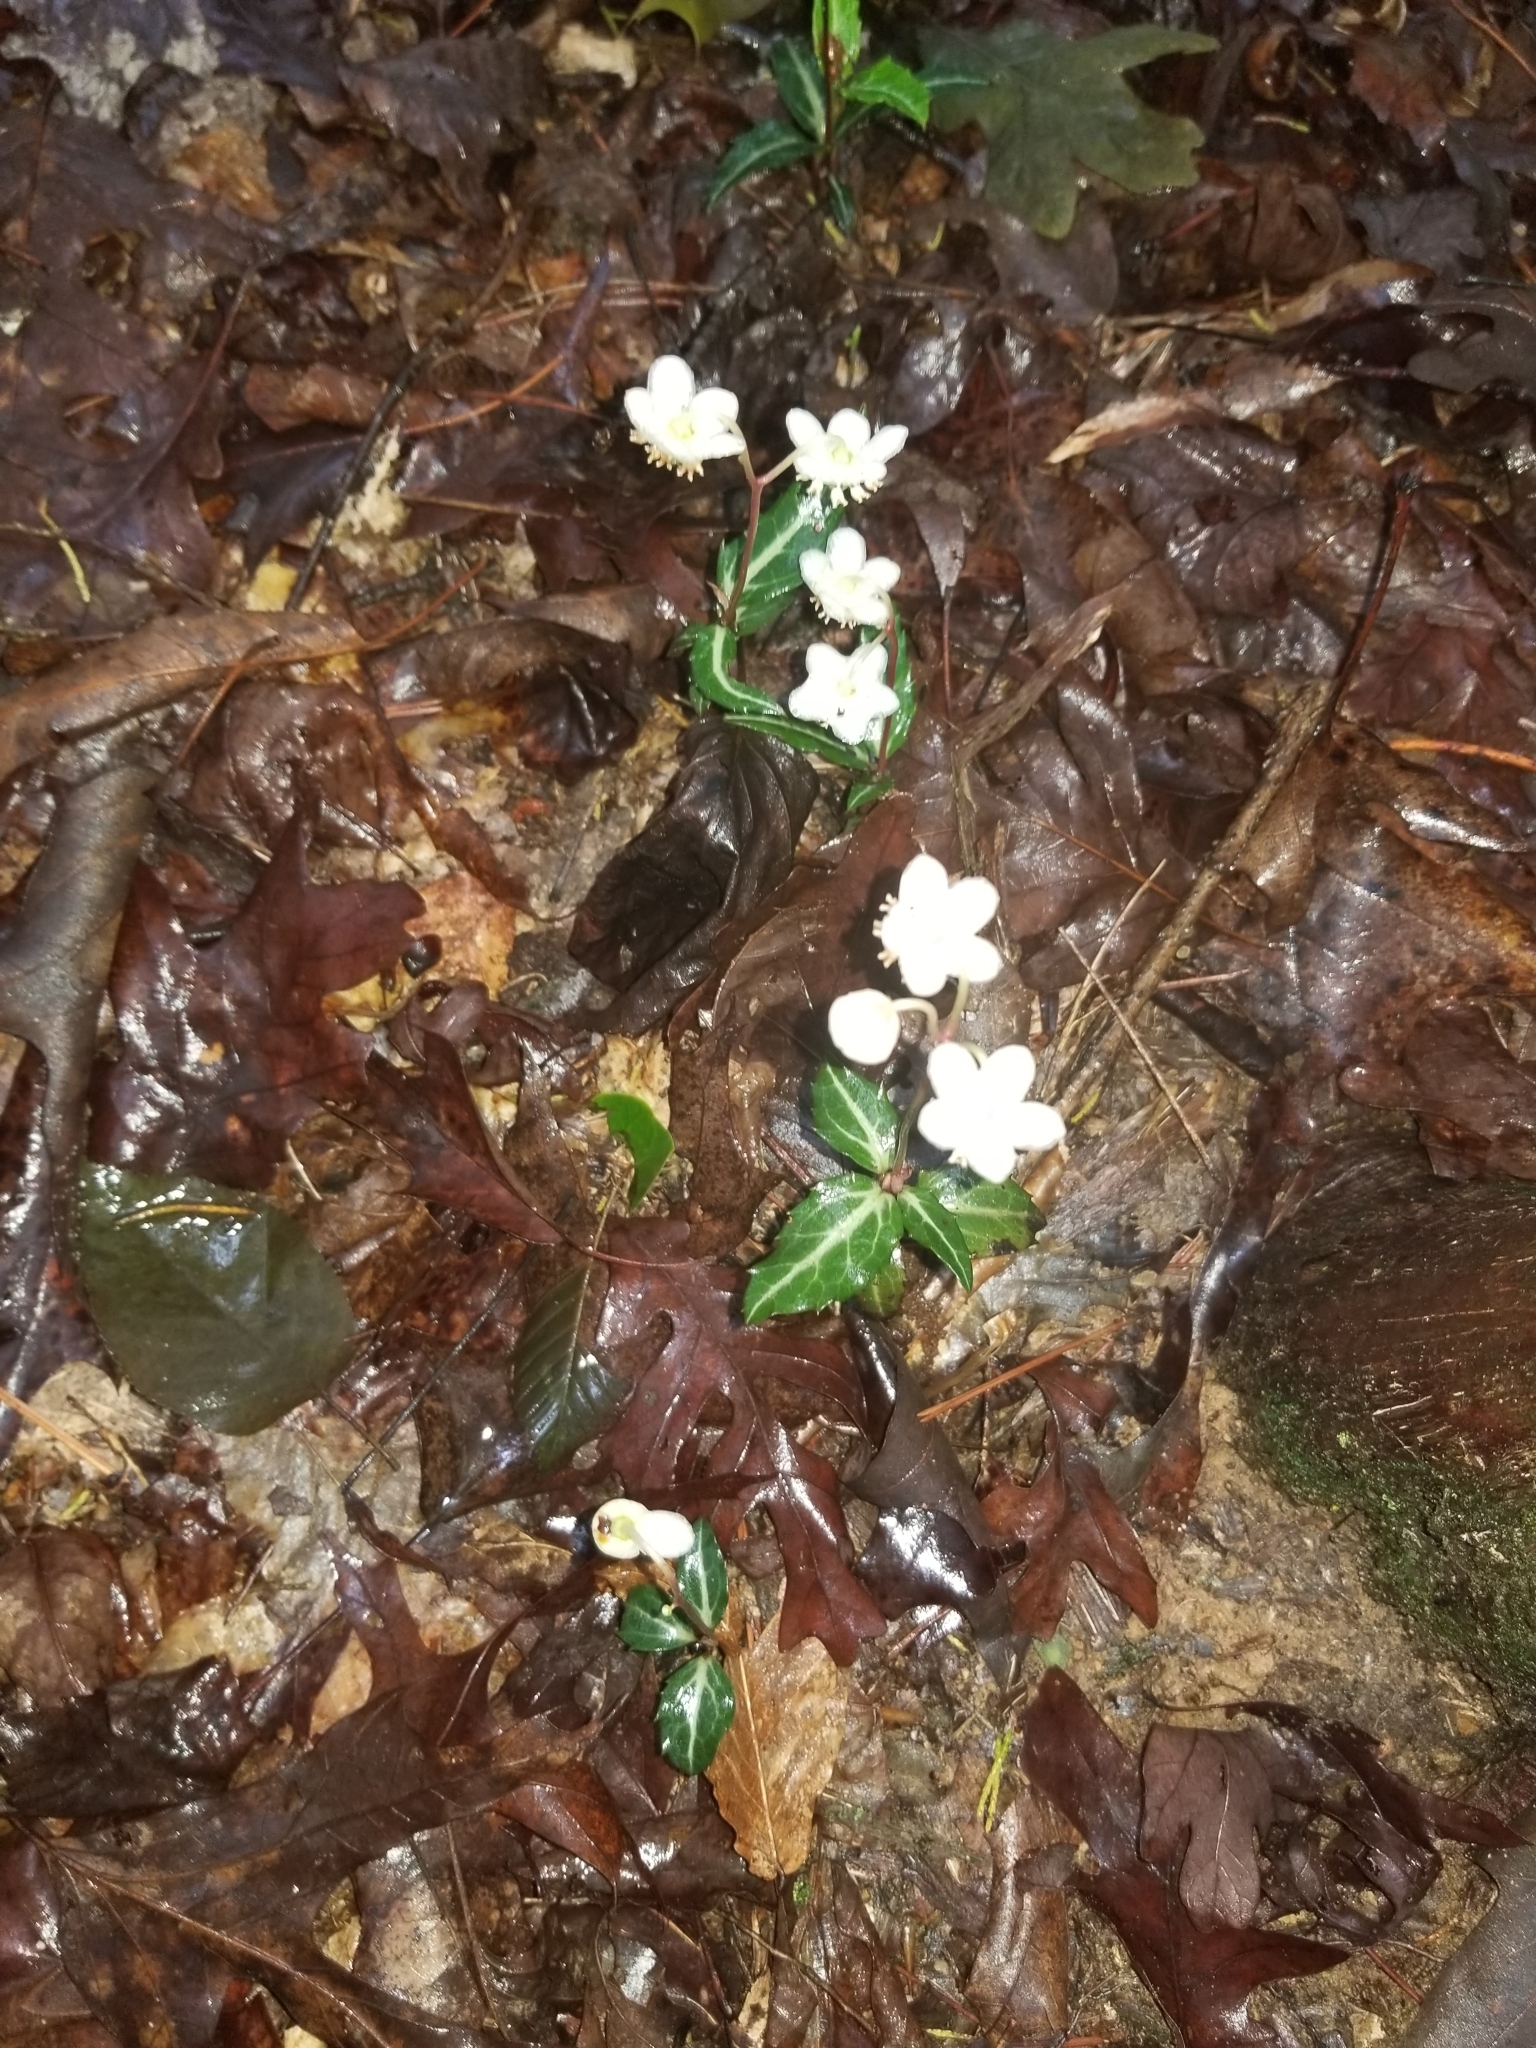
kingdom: Plantae
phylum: Tracheophyta
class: Magnoliopsida
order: Ericales
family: Ericaceae
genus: Chimaphila
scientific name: Chimaphila maculata
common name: Spotted pipsissewa
